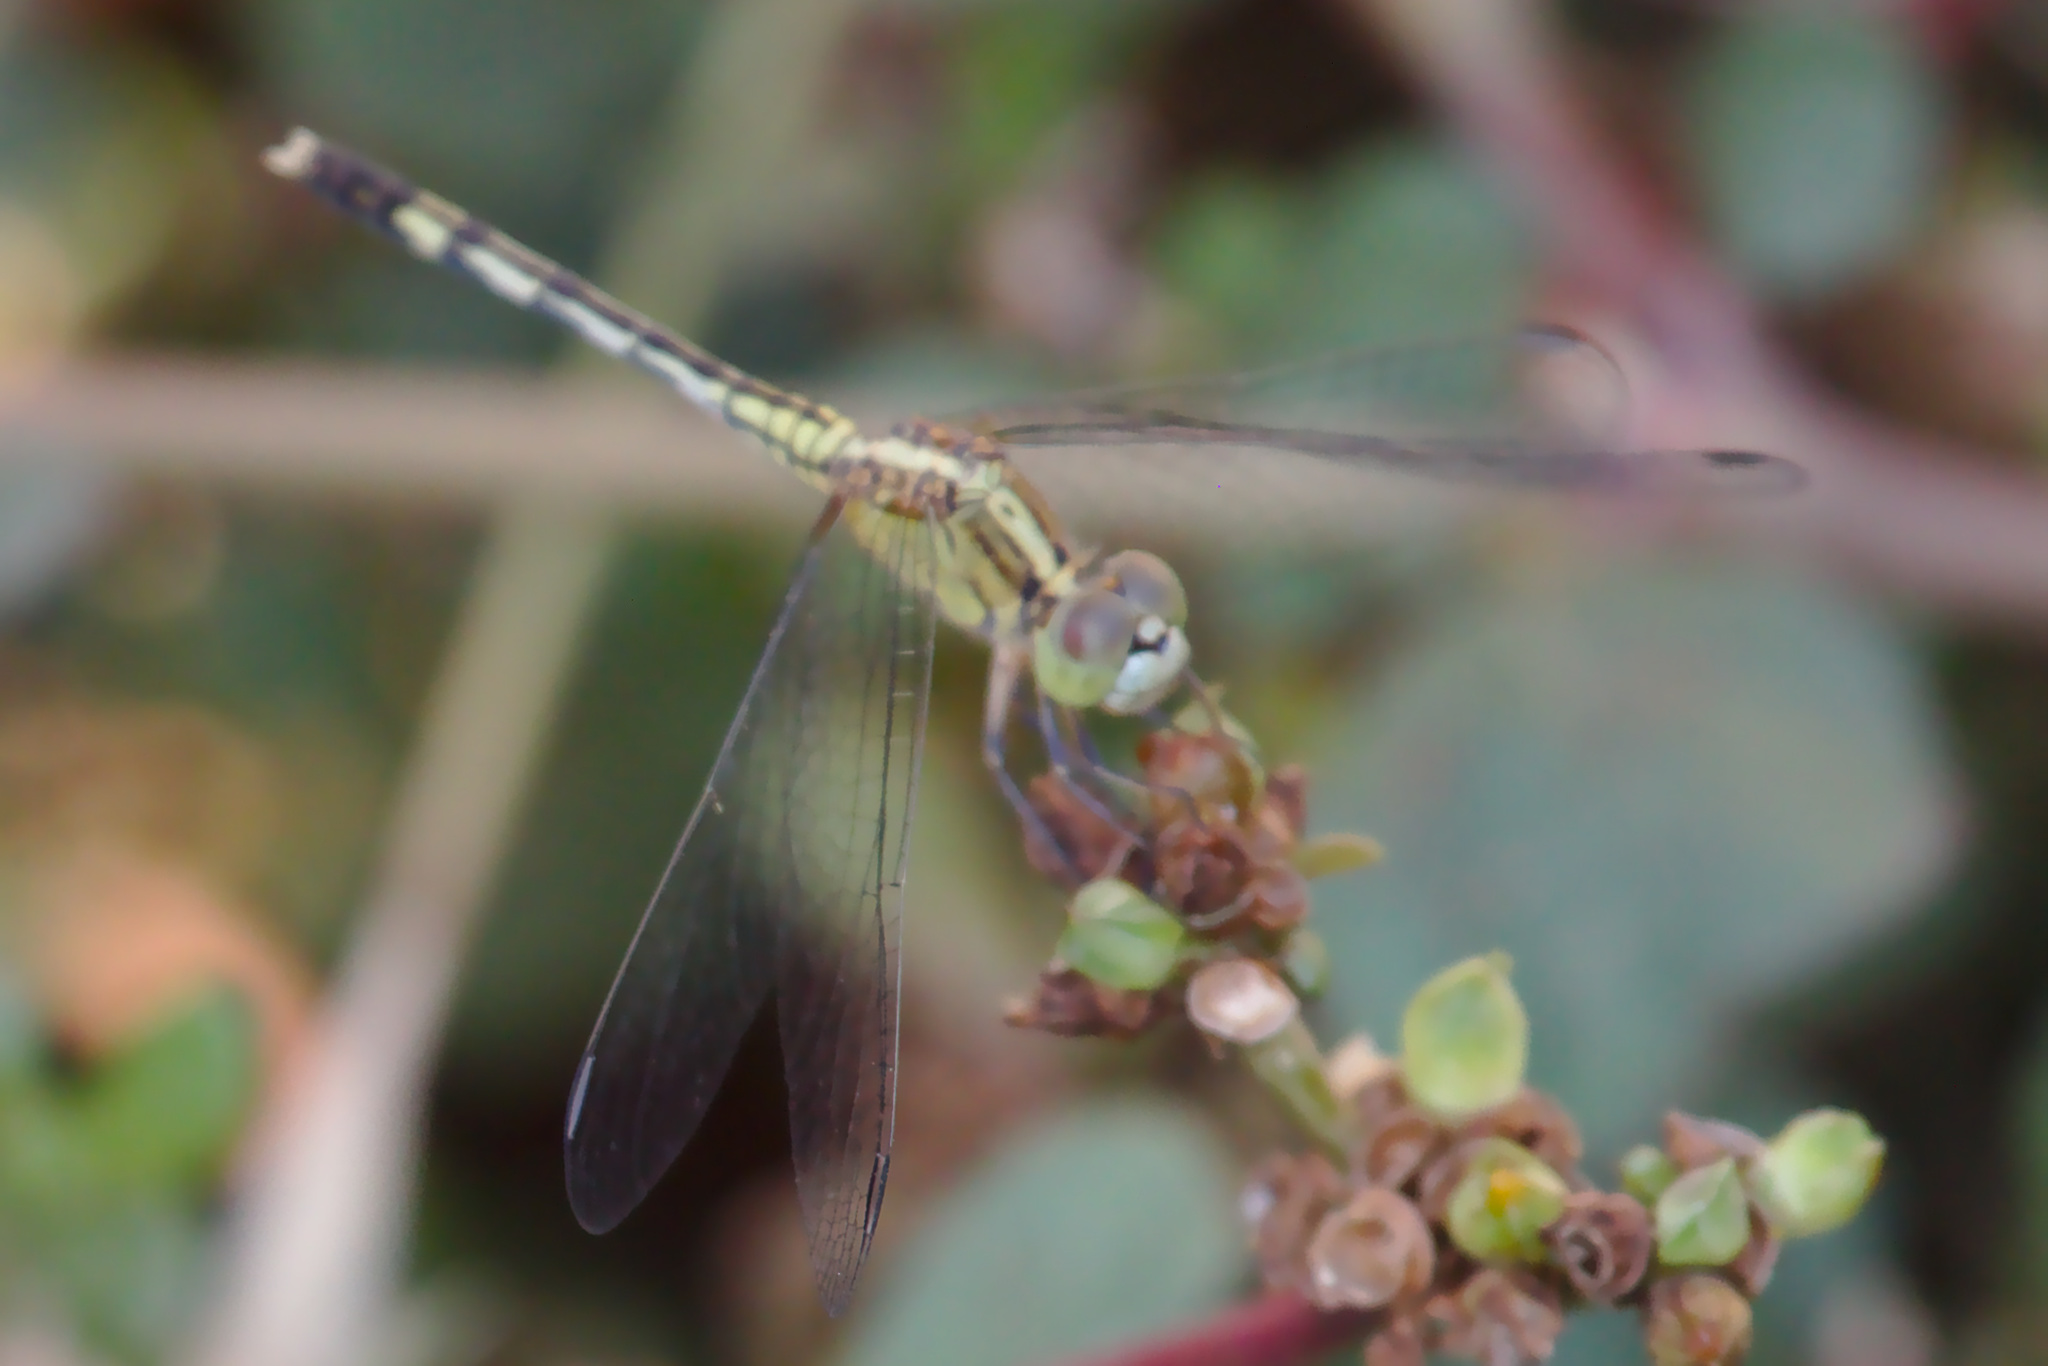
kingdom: Animalia
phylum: Arthropoda
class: Insecta
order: Odonata
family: Libellulidae
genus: Diplacodes
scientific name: Diplacodes trivialis
